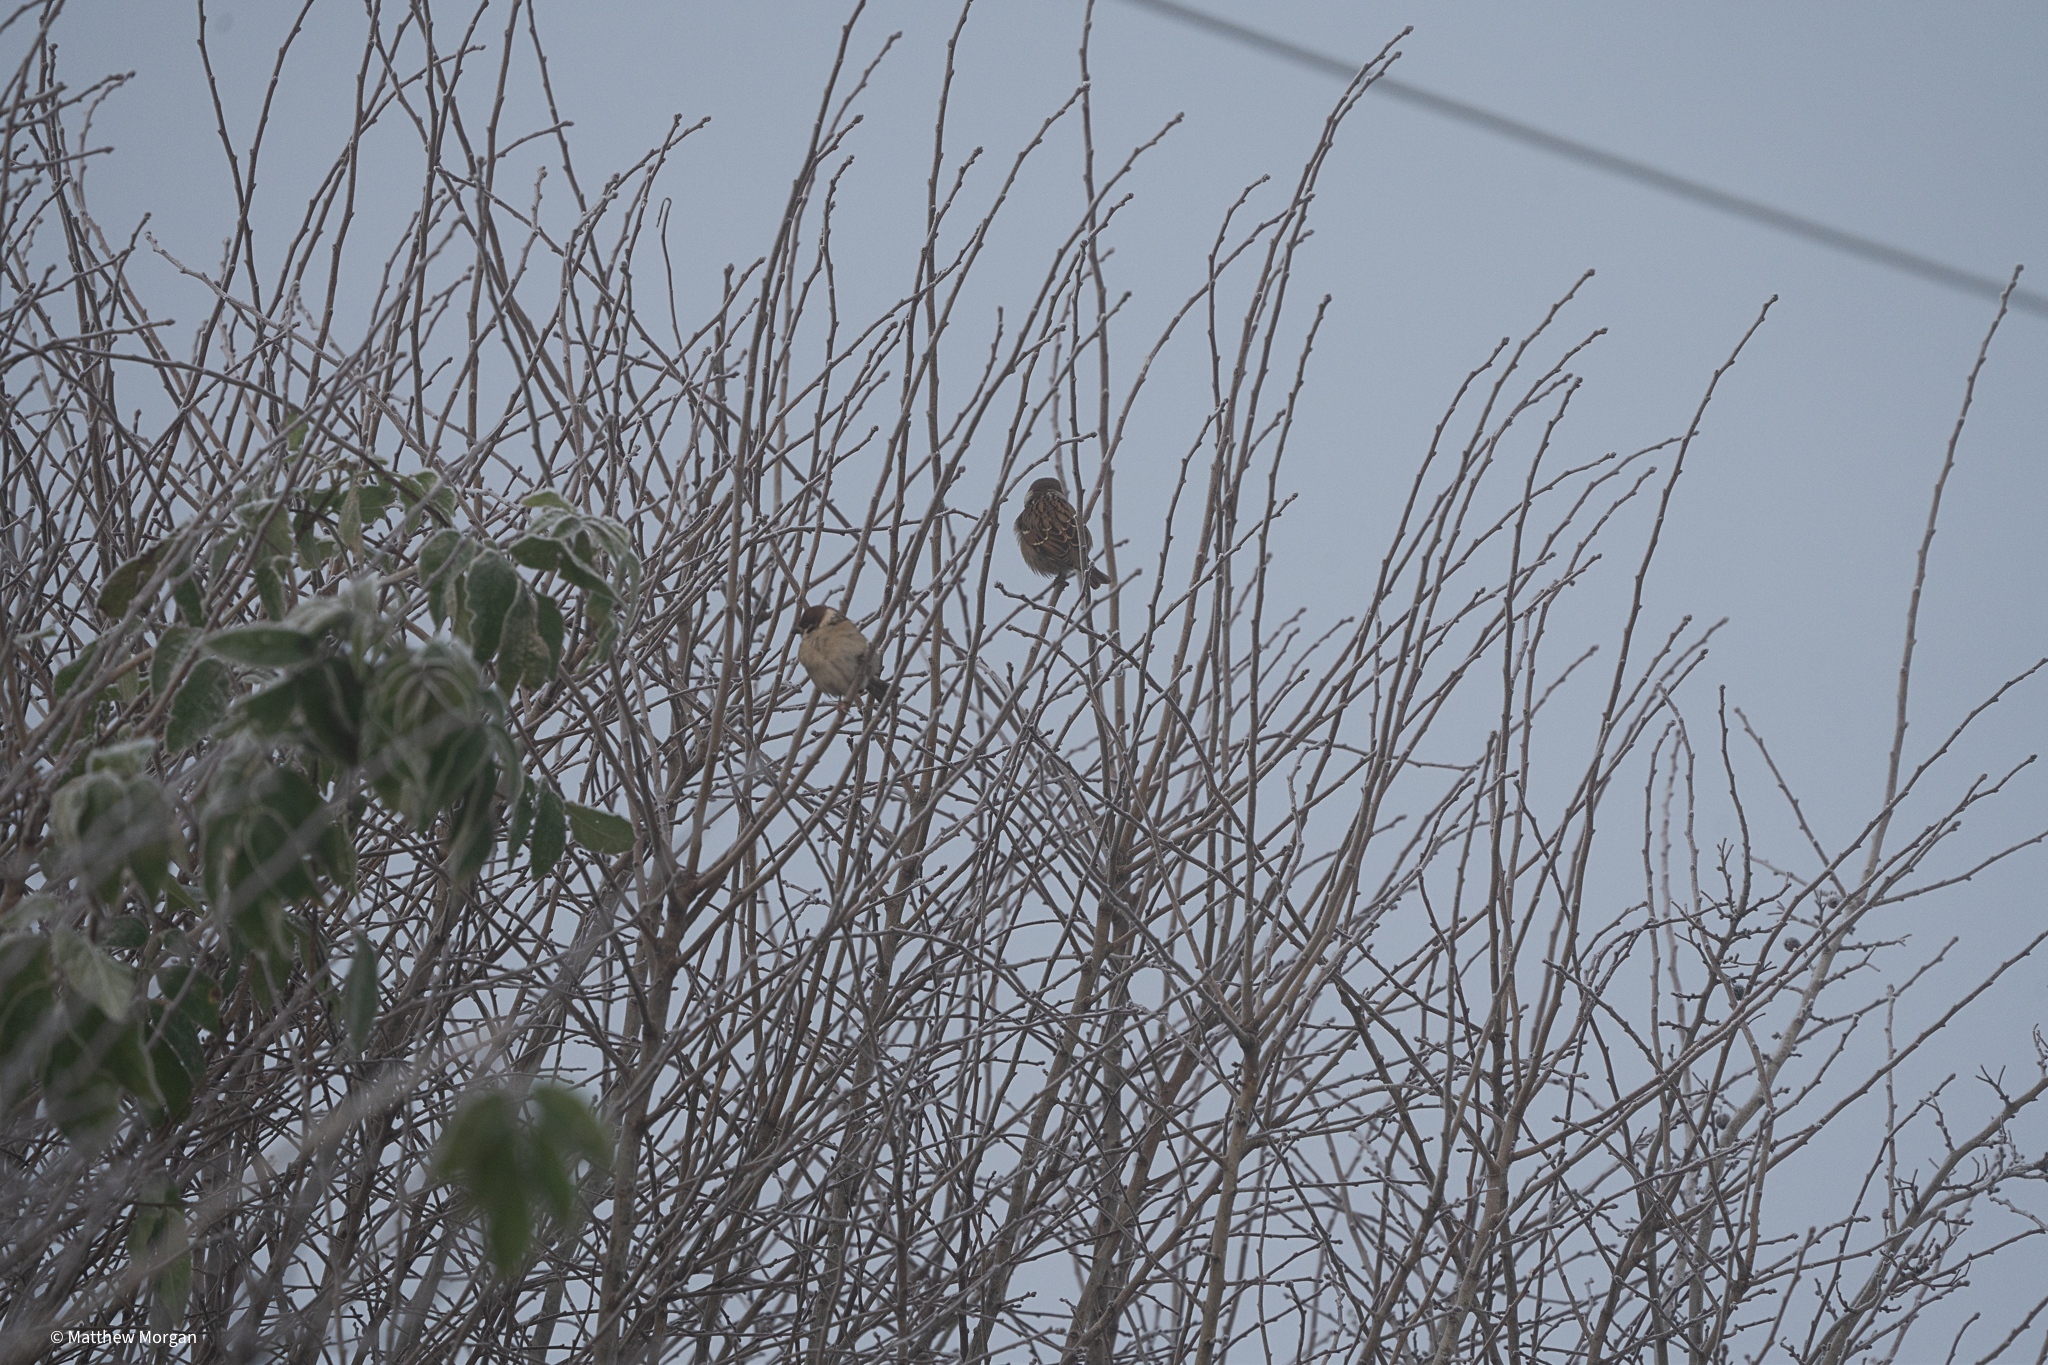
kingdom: Animalia
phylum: Chordata
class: Aves
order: Passeriformes
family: Passeridae
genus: Passer
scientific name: Passer montanus
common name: Eurasian tree sparrow
